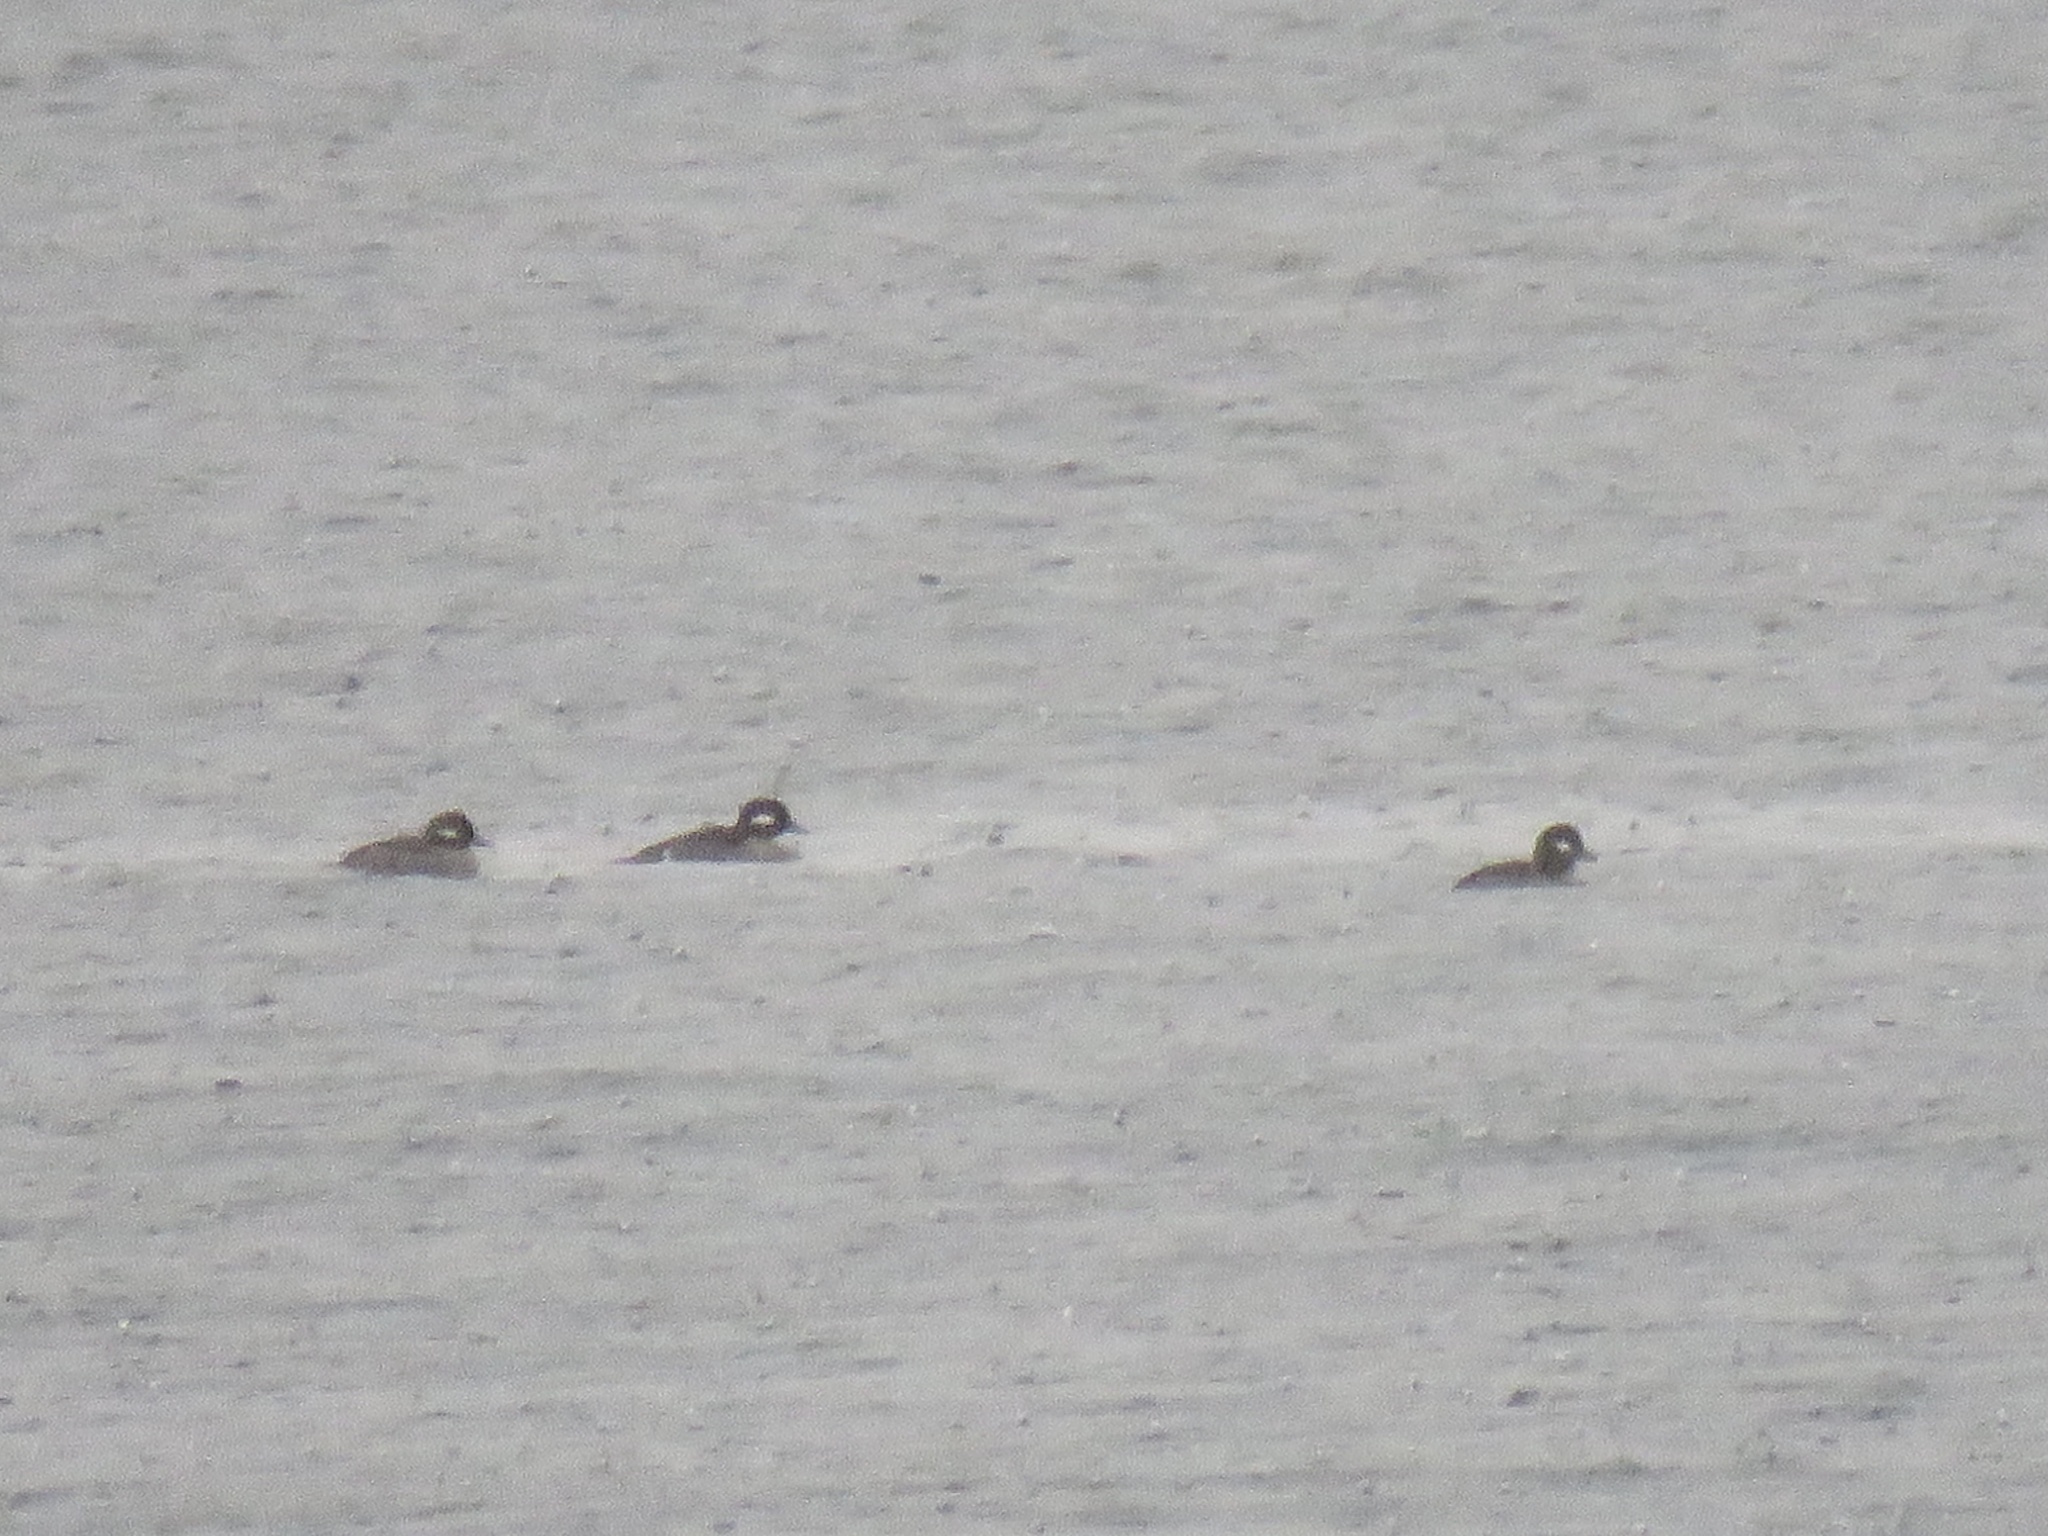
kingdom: Animalia
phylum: Chordata
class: Aves
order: Anseriformes
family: Anatidae
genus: Bucephala
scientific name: Bucephala albeola
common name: Bufflehead
